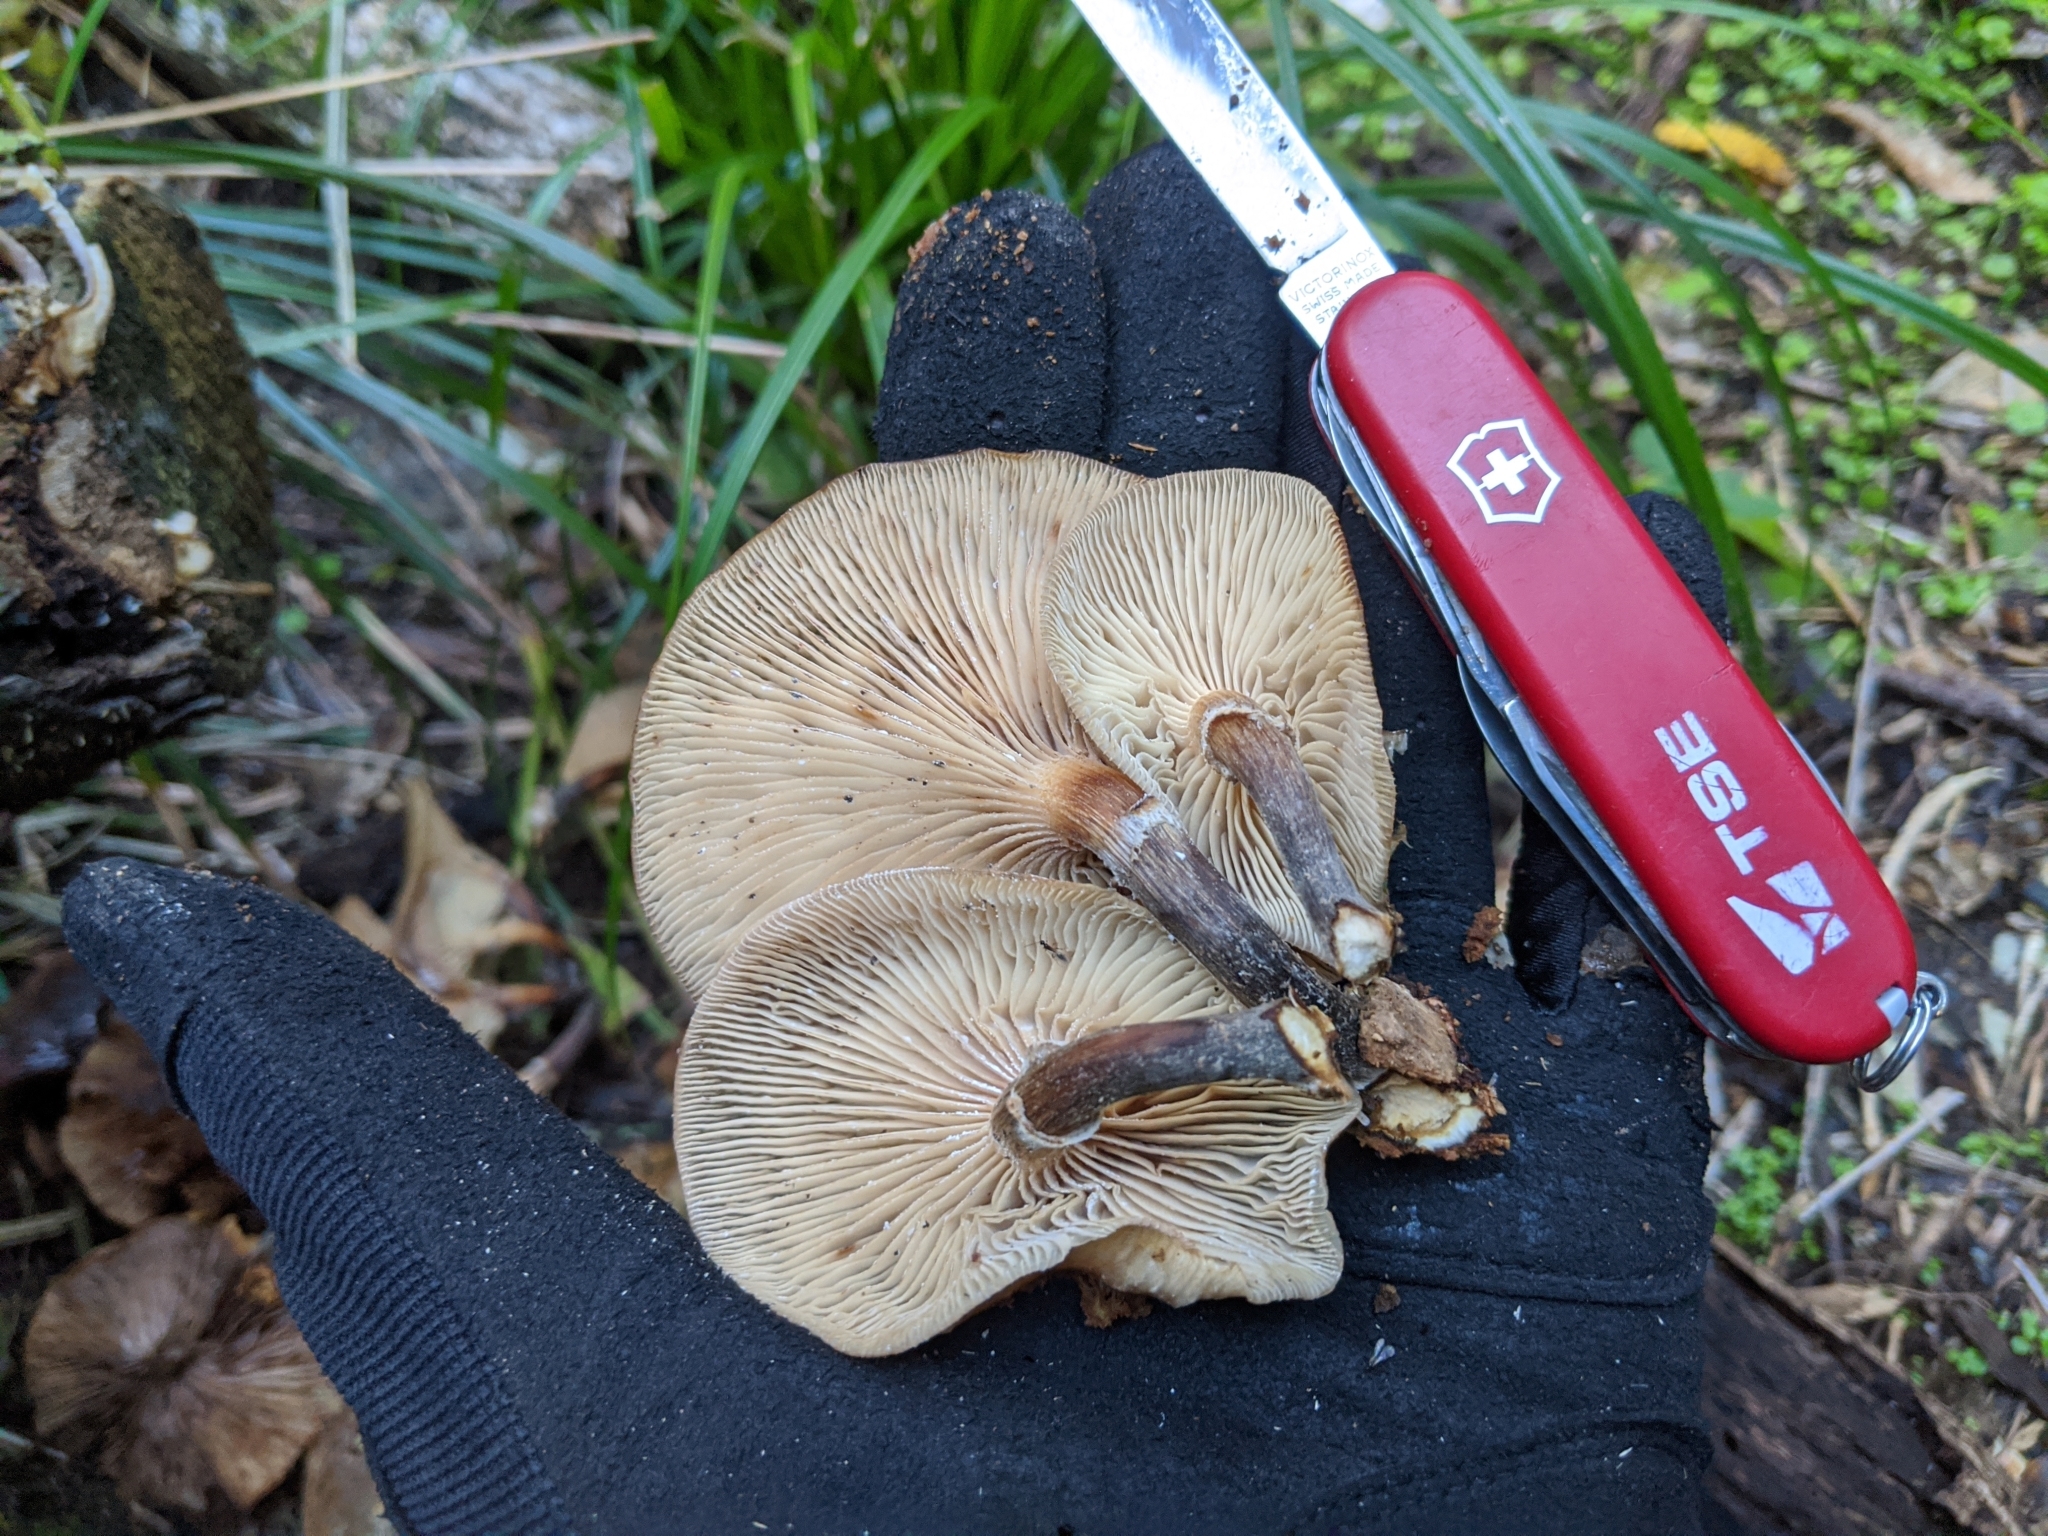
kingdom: Fungi
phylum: Basidiomycota
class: Agaricomycetes
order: Agaricales
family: Physalacriaceae
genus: Armillaria
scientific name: Armillaria novae-zelandiae
